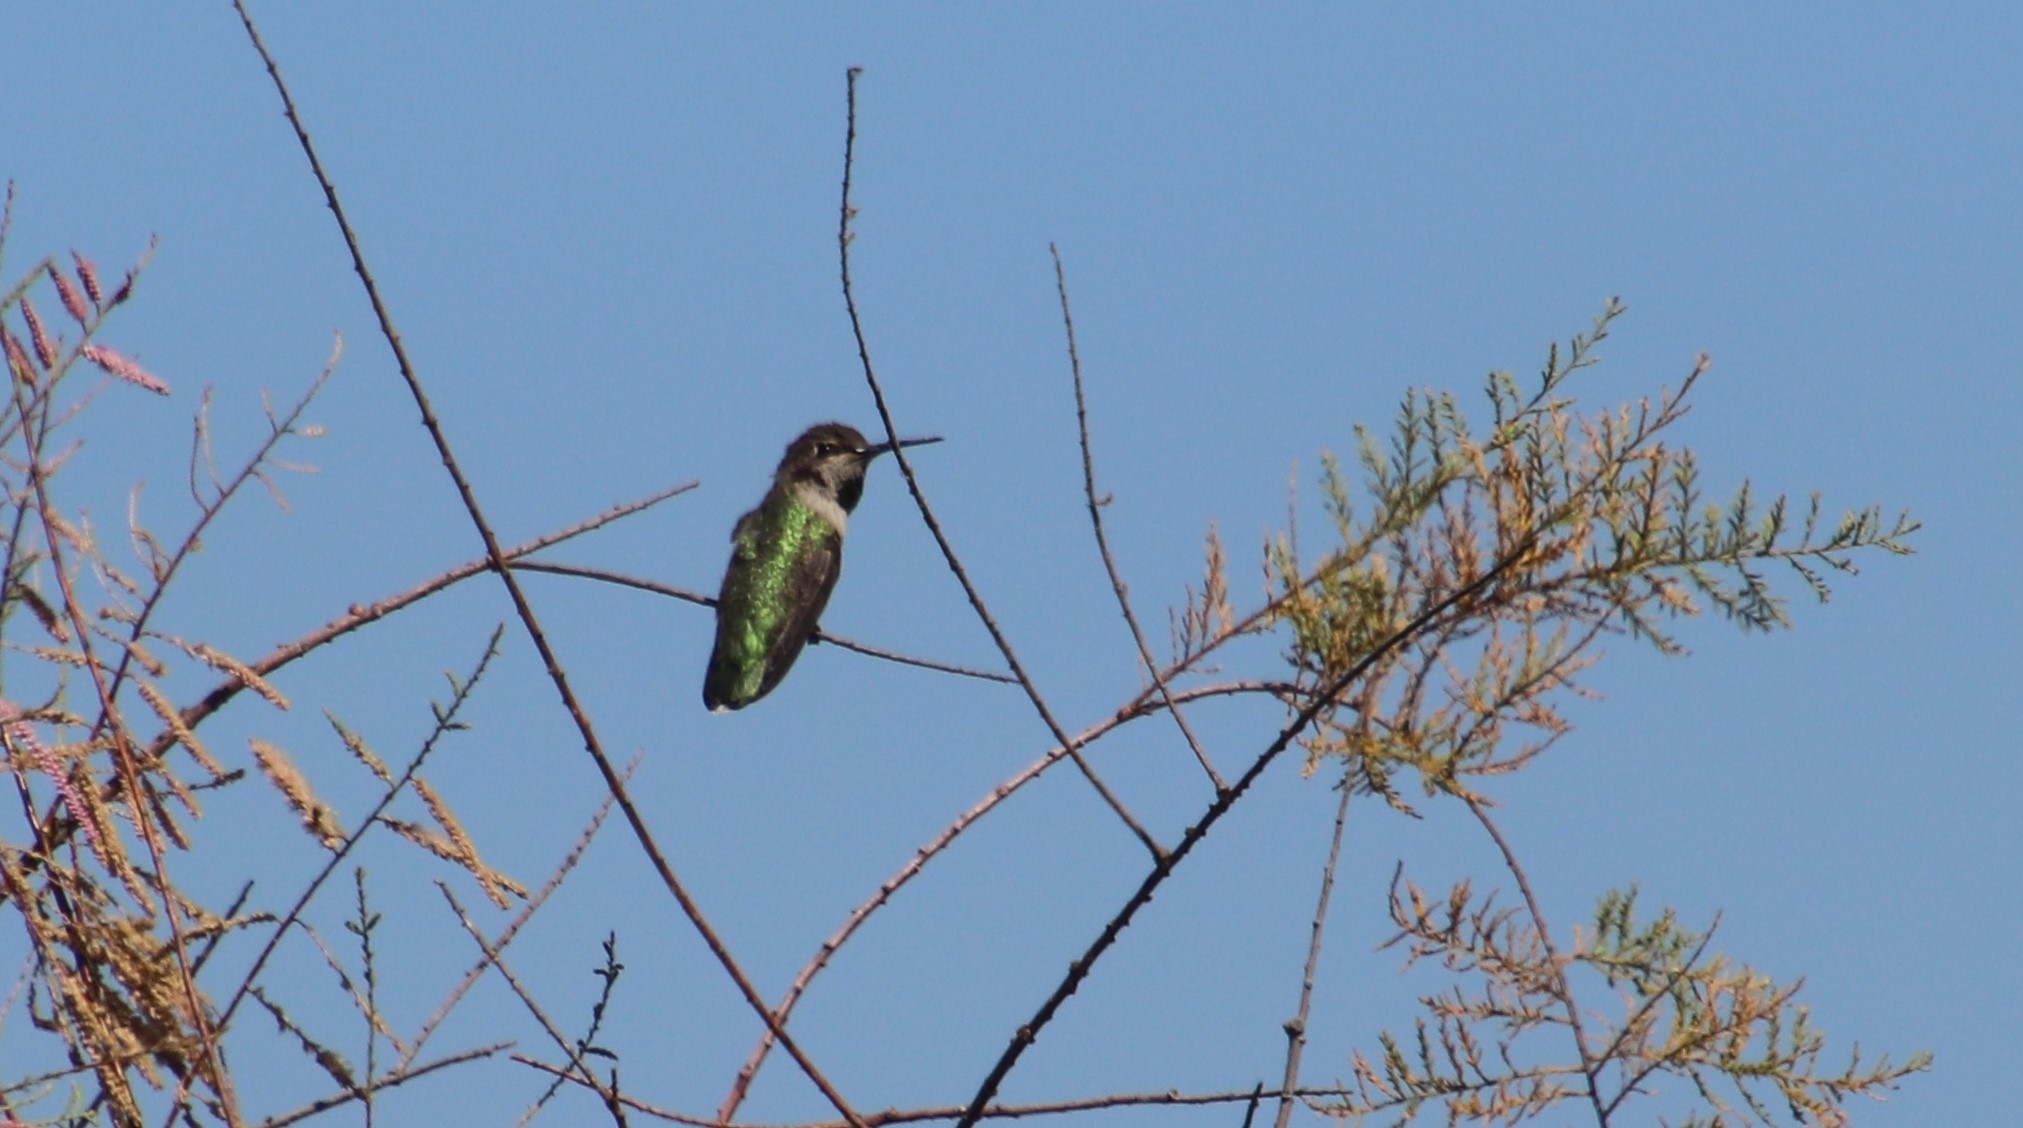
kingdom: Animalia
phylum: Chordata
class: Aves
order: Apodiformes
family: Trochilidae
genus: Calypte
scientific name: Calypte anna
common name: Anna's hummingbird
